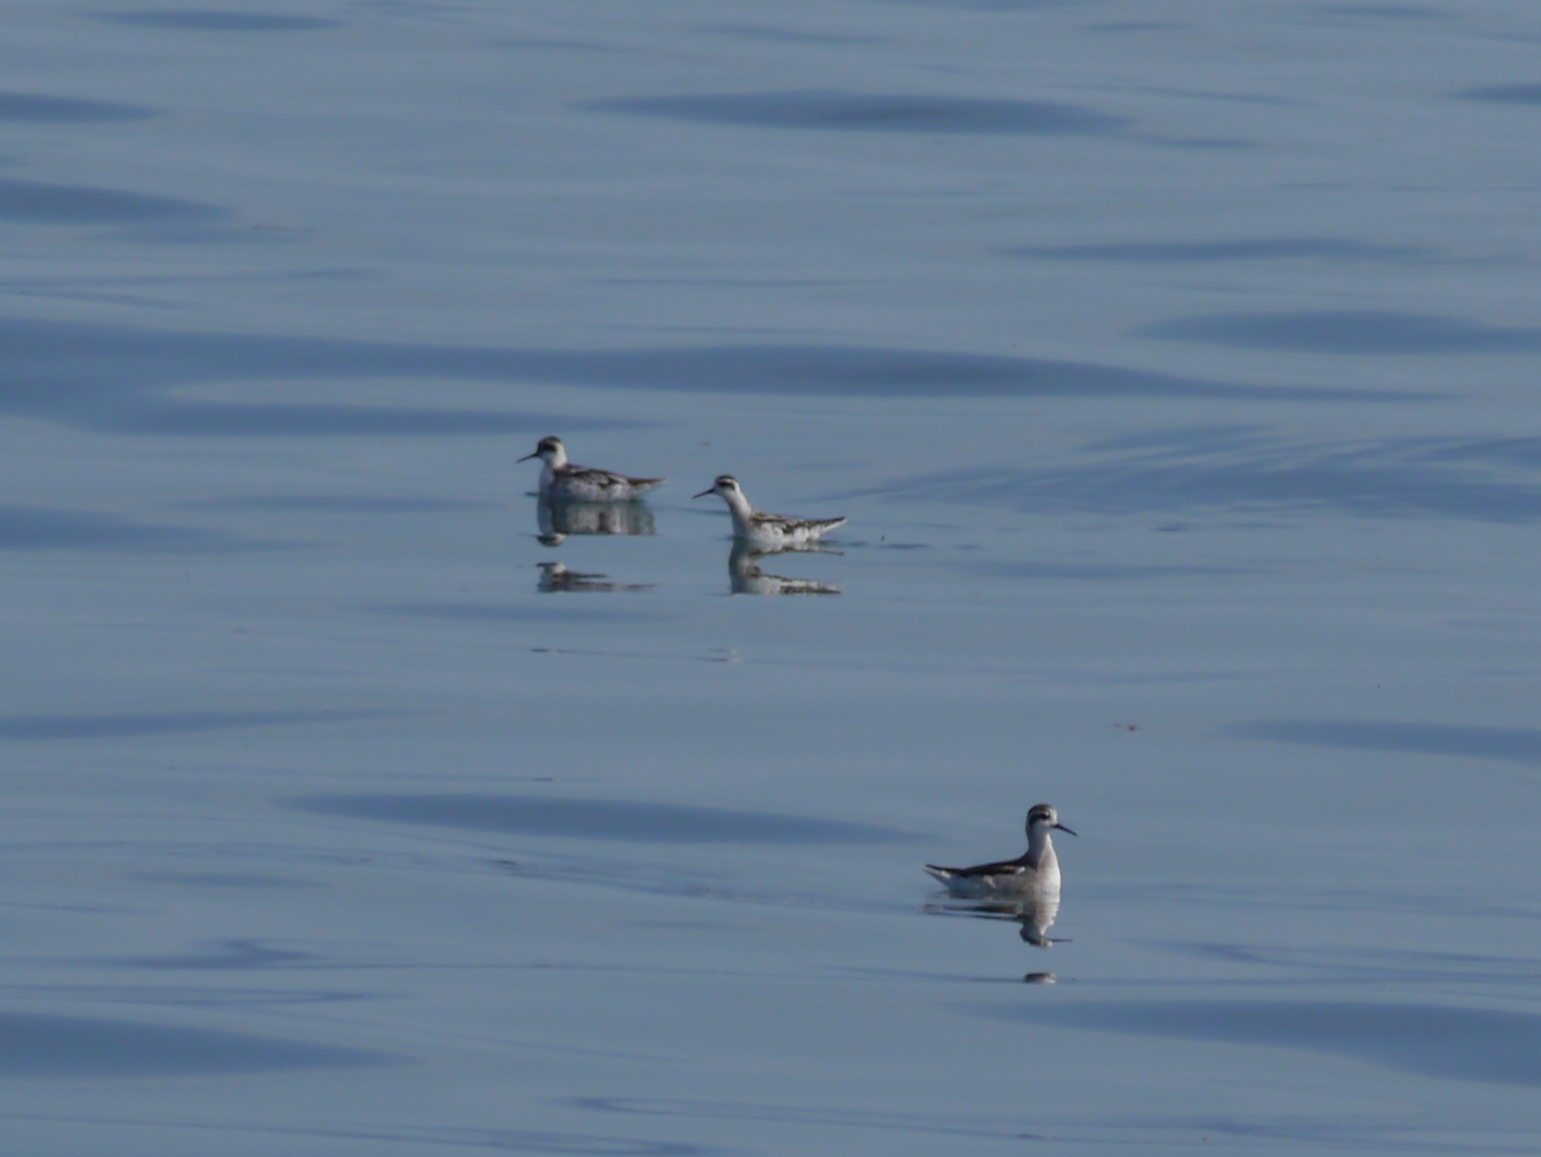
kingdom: Animalia
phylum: Chordata
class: Aves
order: Charadriiformes
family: Scolopacidae
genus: Phalaropus
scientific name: Phalaropus lobatus
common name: Red-necked phalarope
